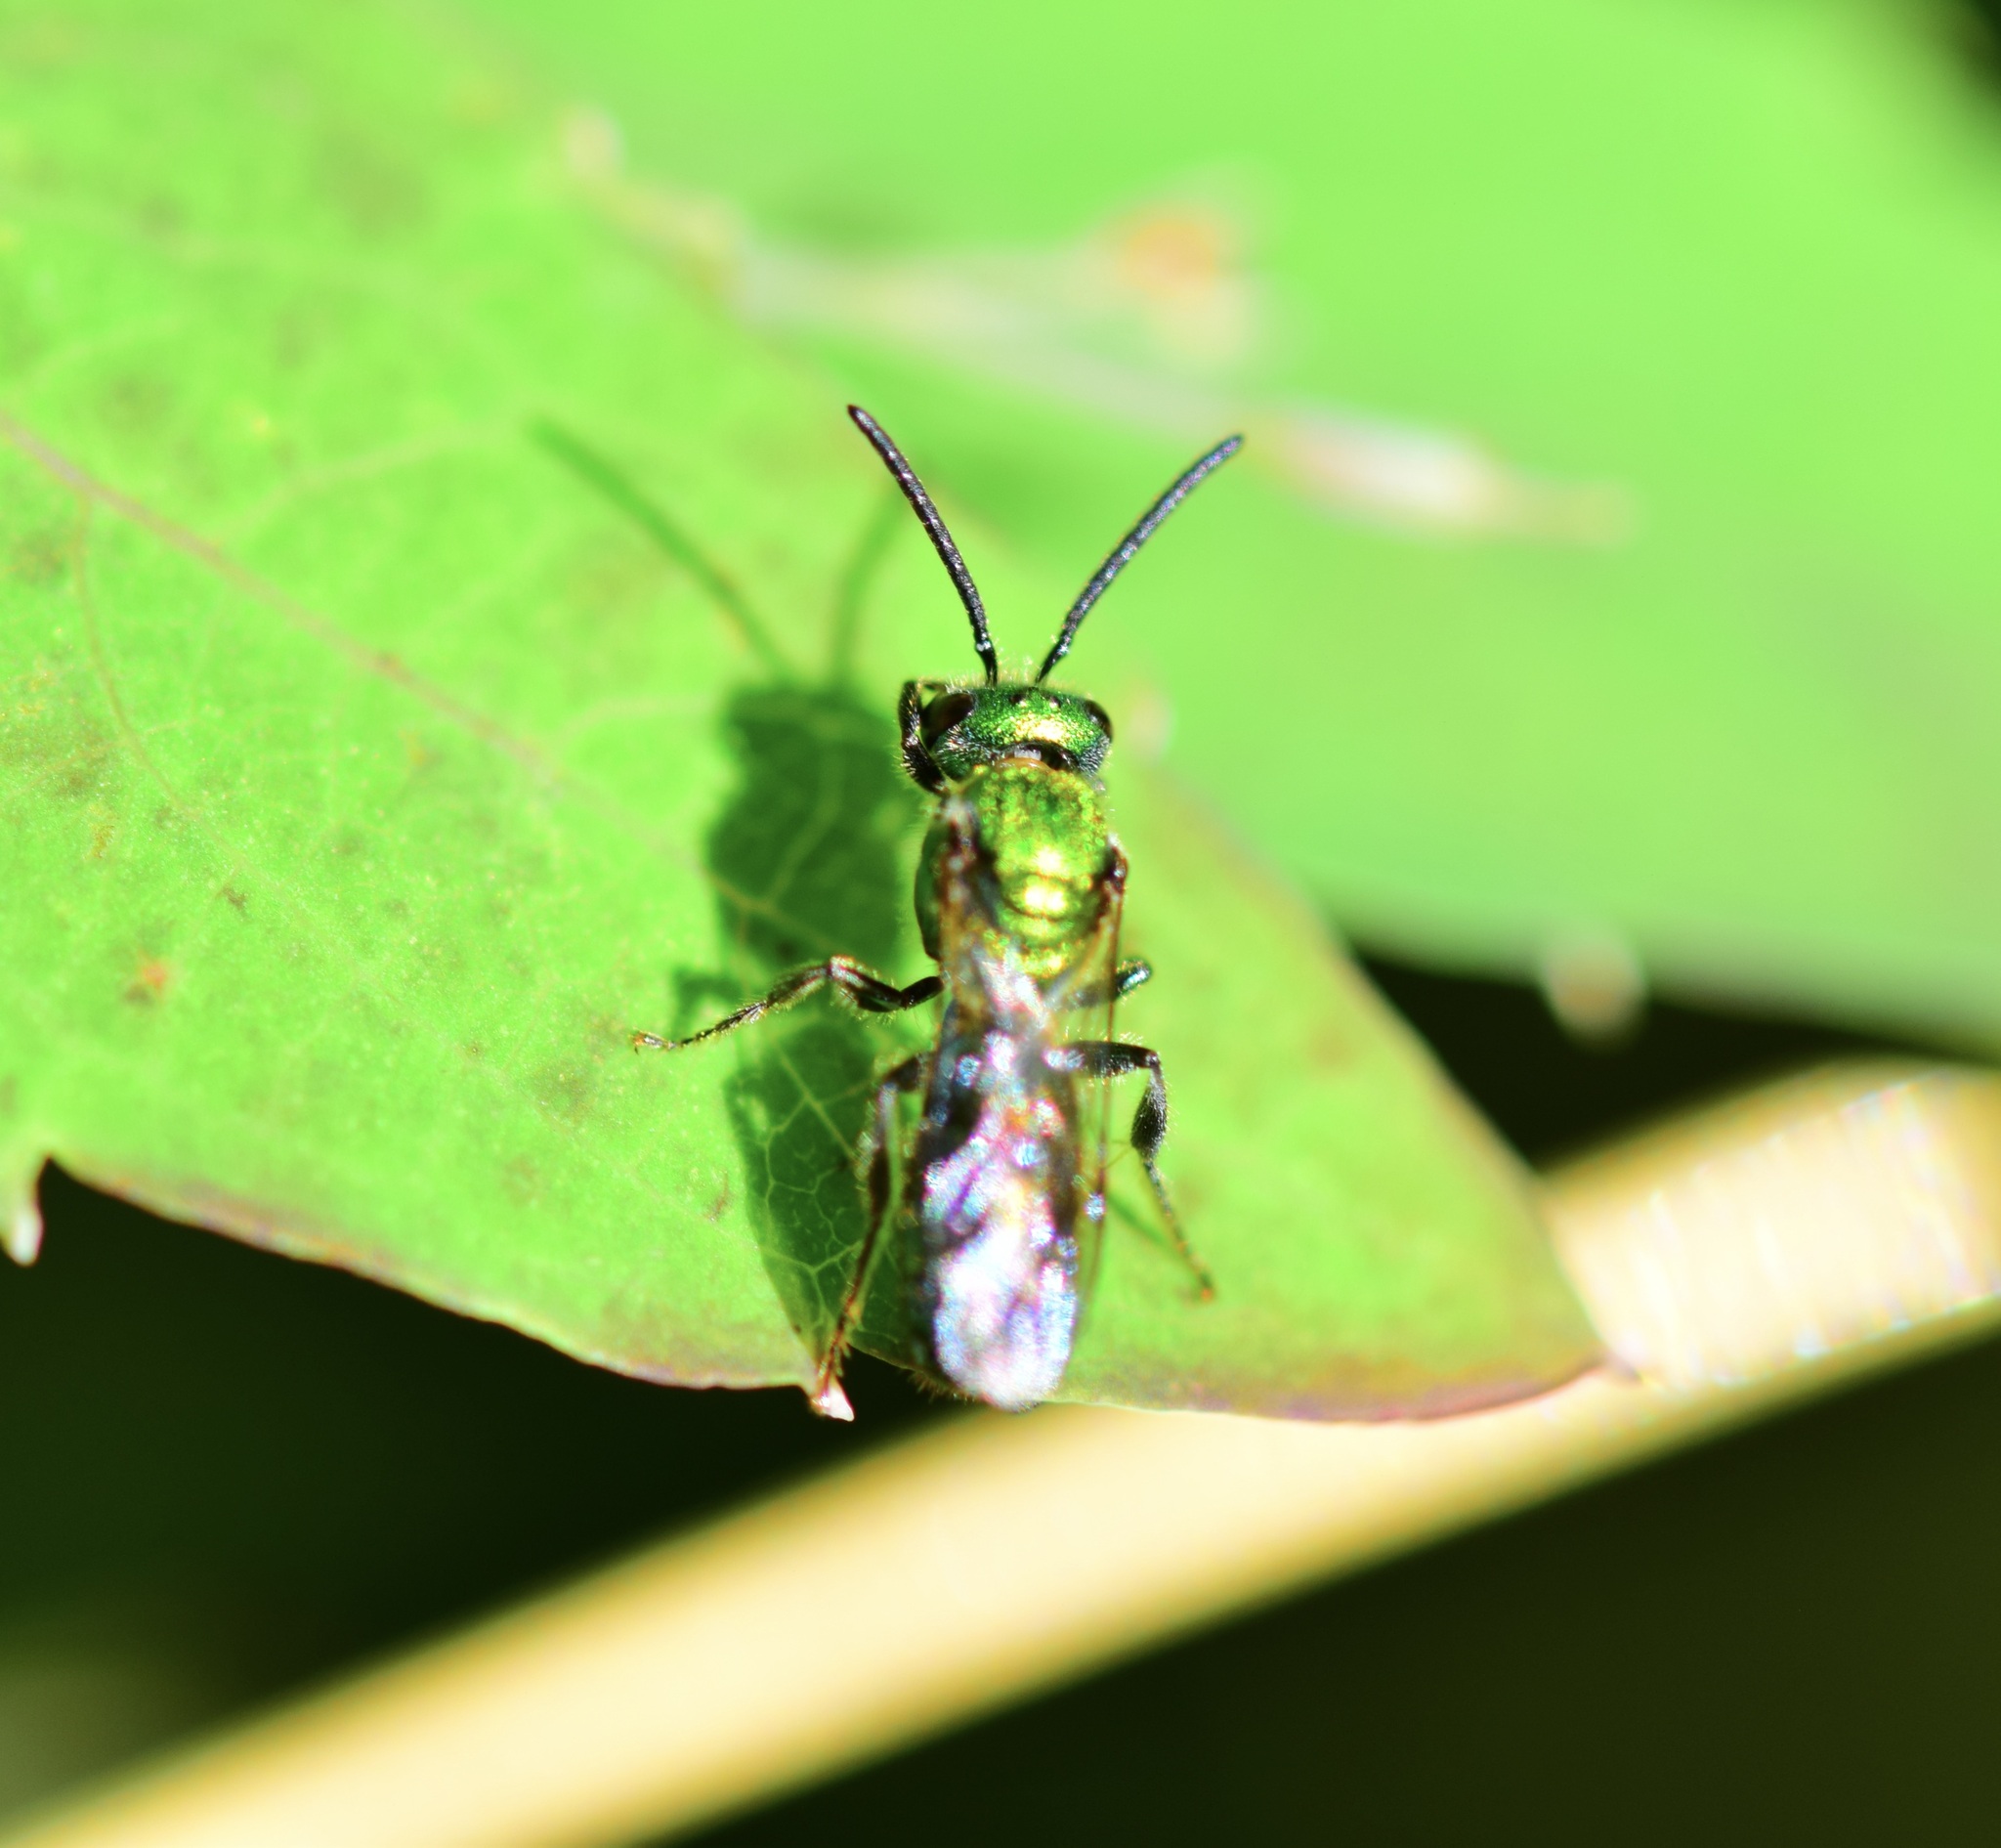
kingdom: Animalia
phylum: Arthropoda
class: Insecta
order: Hymenoptera
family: Halictidae
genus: Augochlora
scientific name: Augochlora pura
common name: Pure green sweat bee
